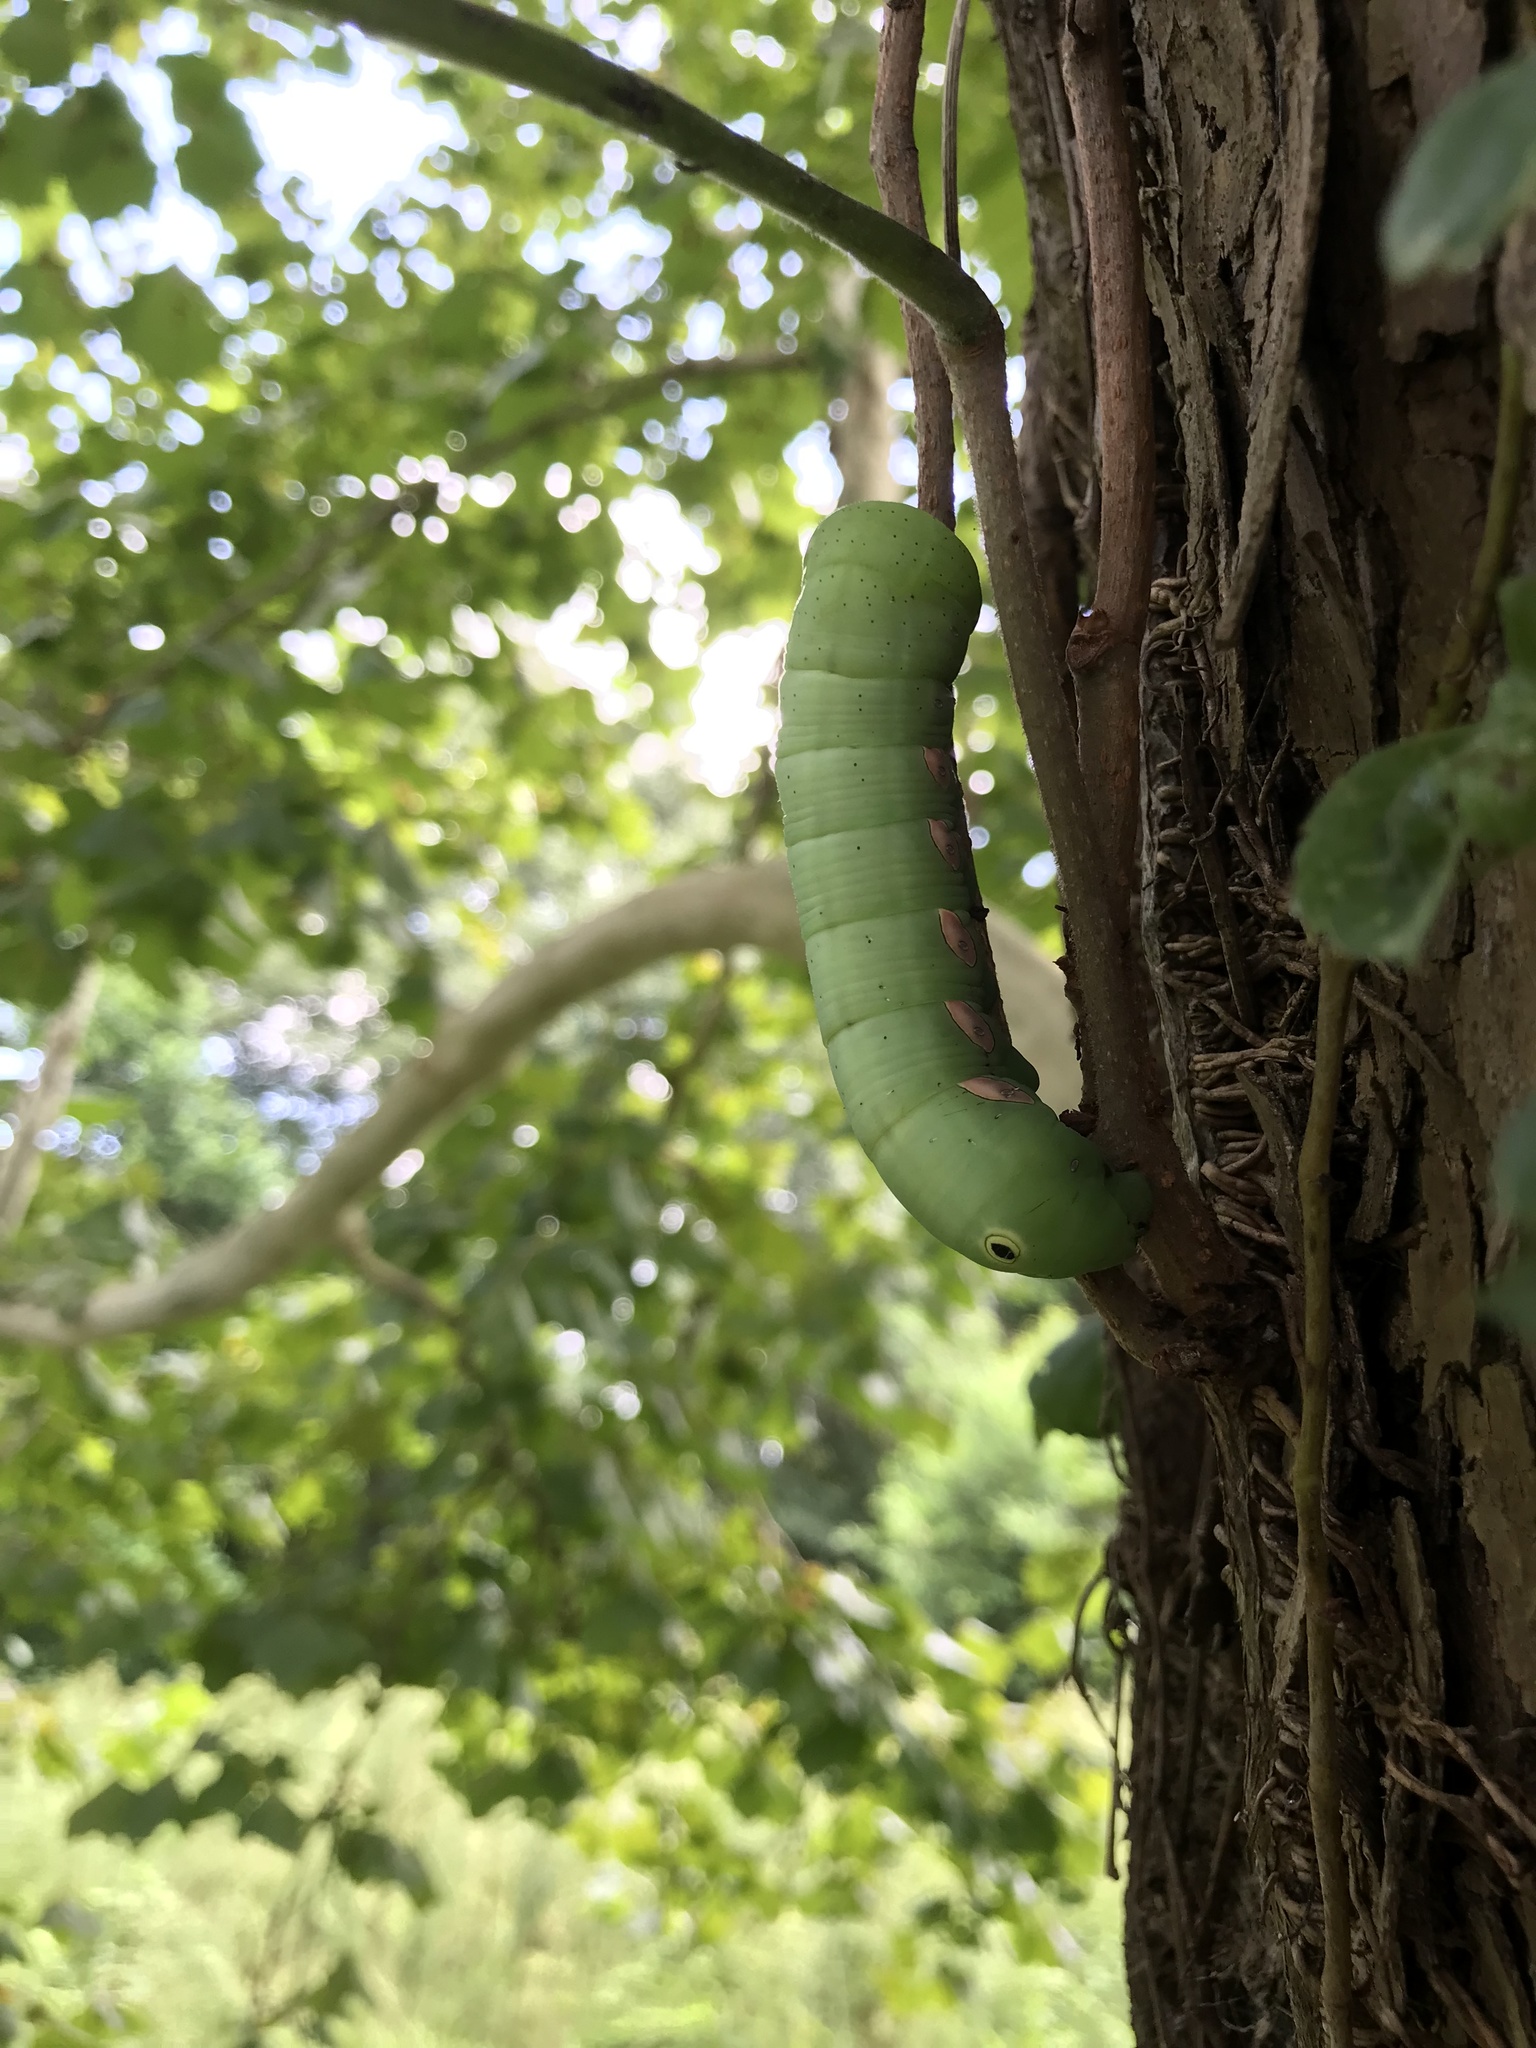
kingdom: Animalia
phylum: Arthropoda
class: Insecta
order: Lepidoptera
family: Sphingidae
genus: Eumorpha
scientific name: Eumorpha pandorus
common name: Pandora sphinx
